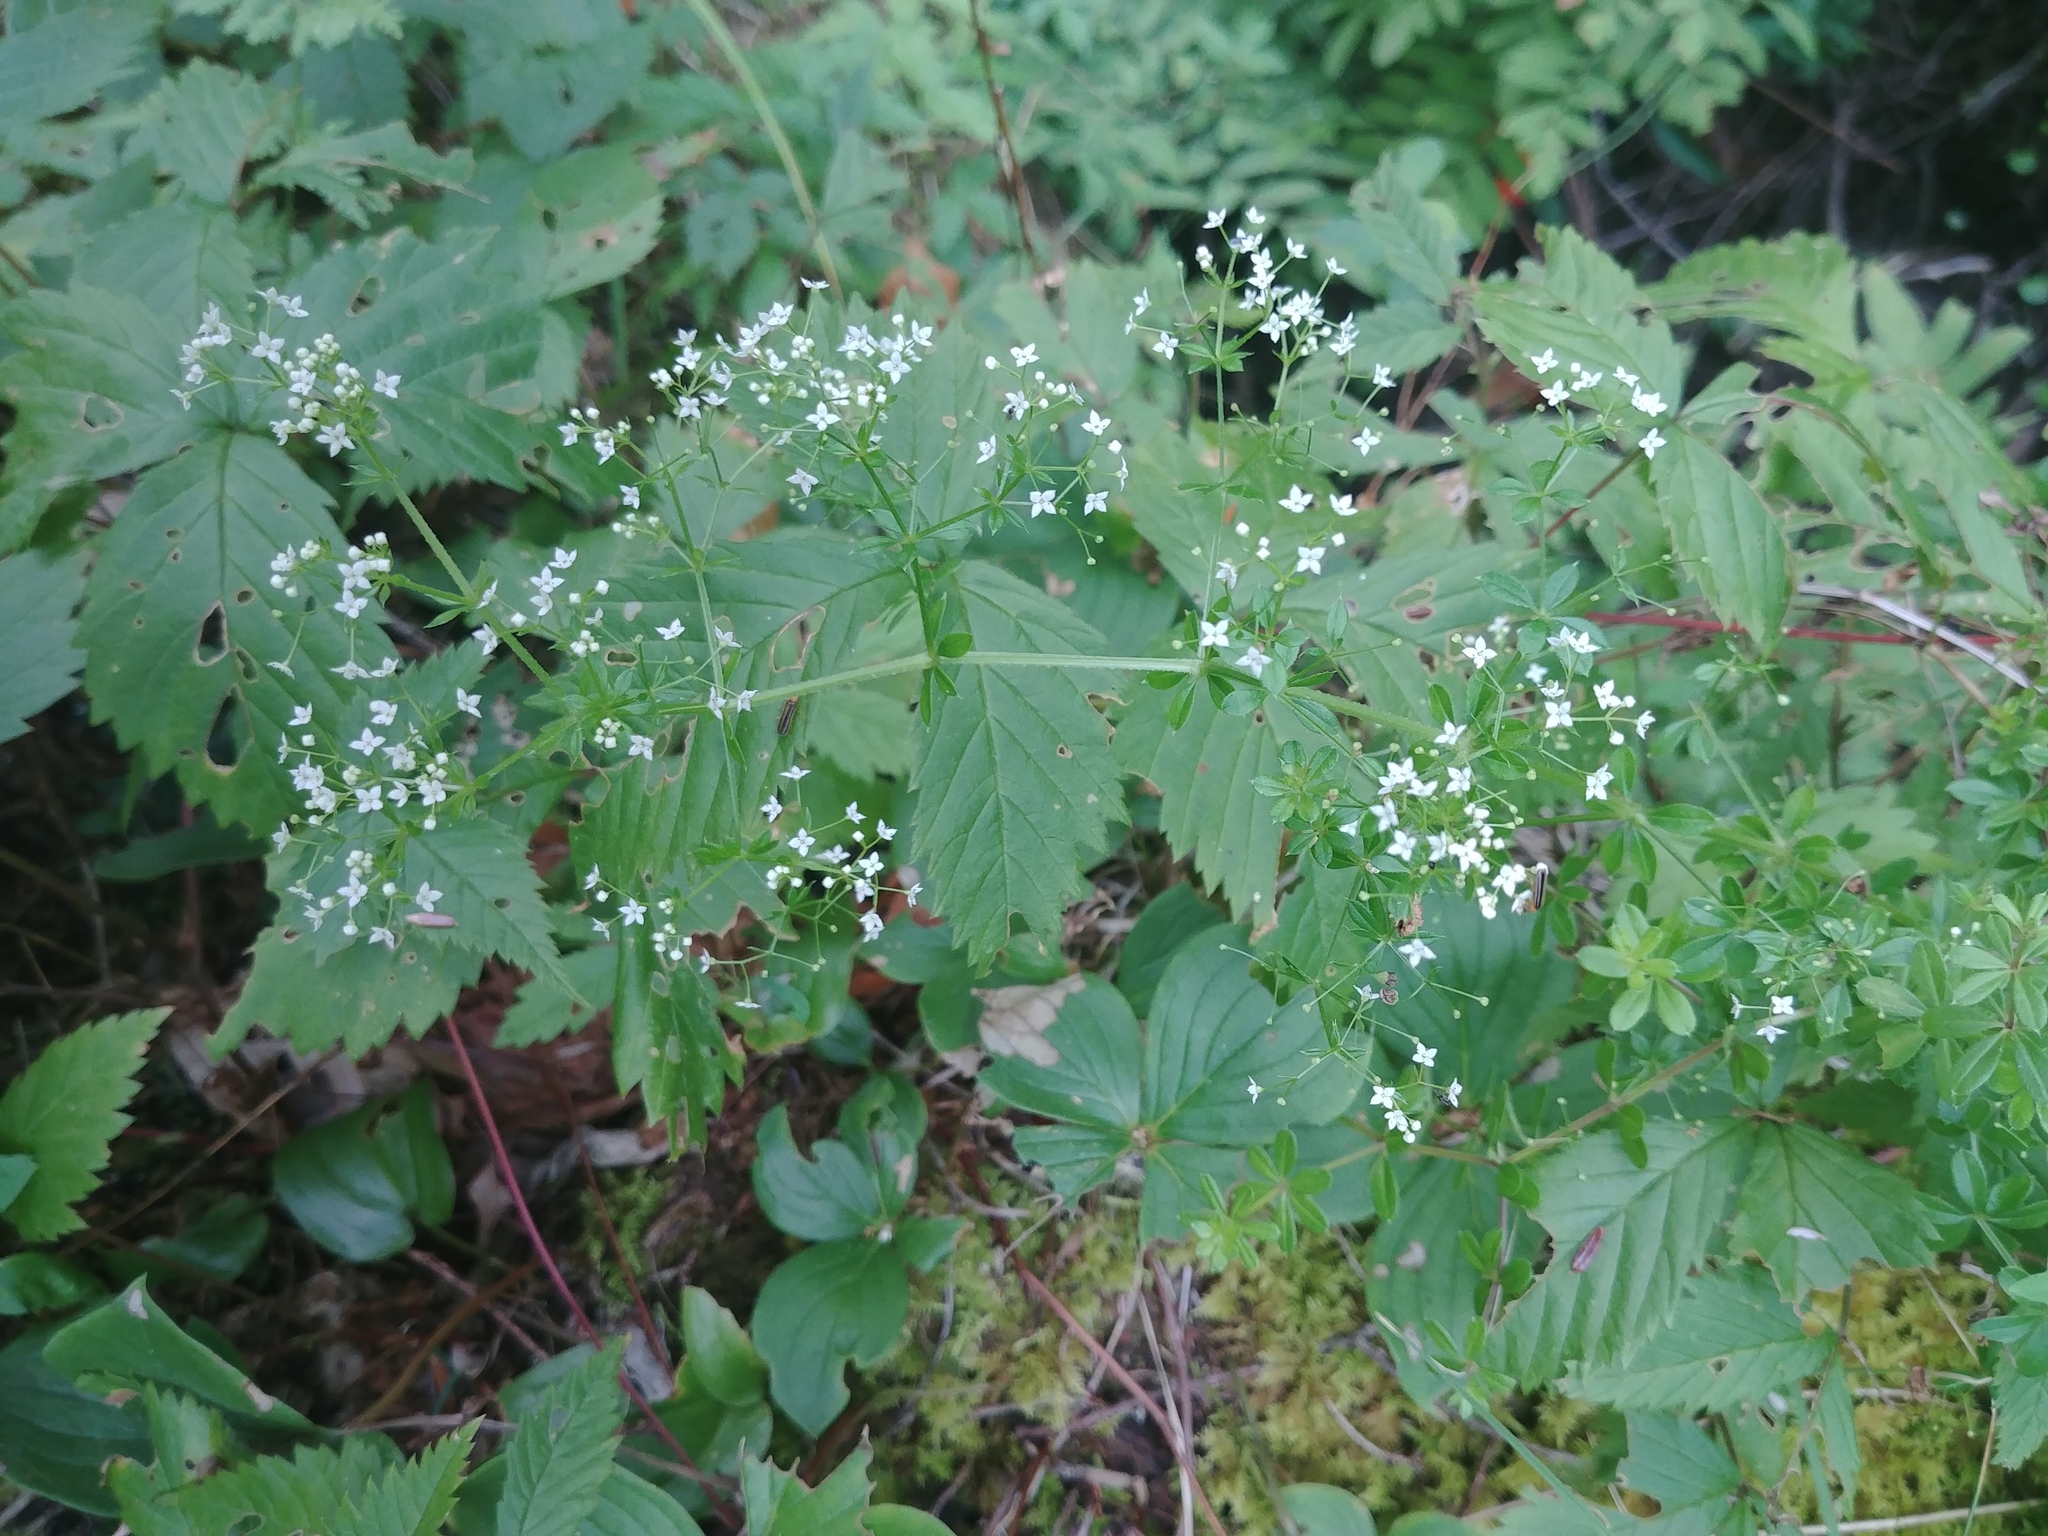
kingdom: Plantae
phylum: Tracheophyta
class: Magnoliopsida
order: Gentianales
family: Rubiaceae
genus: Galium
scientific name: Galium asprellum
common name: Rough bedstraw
